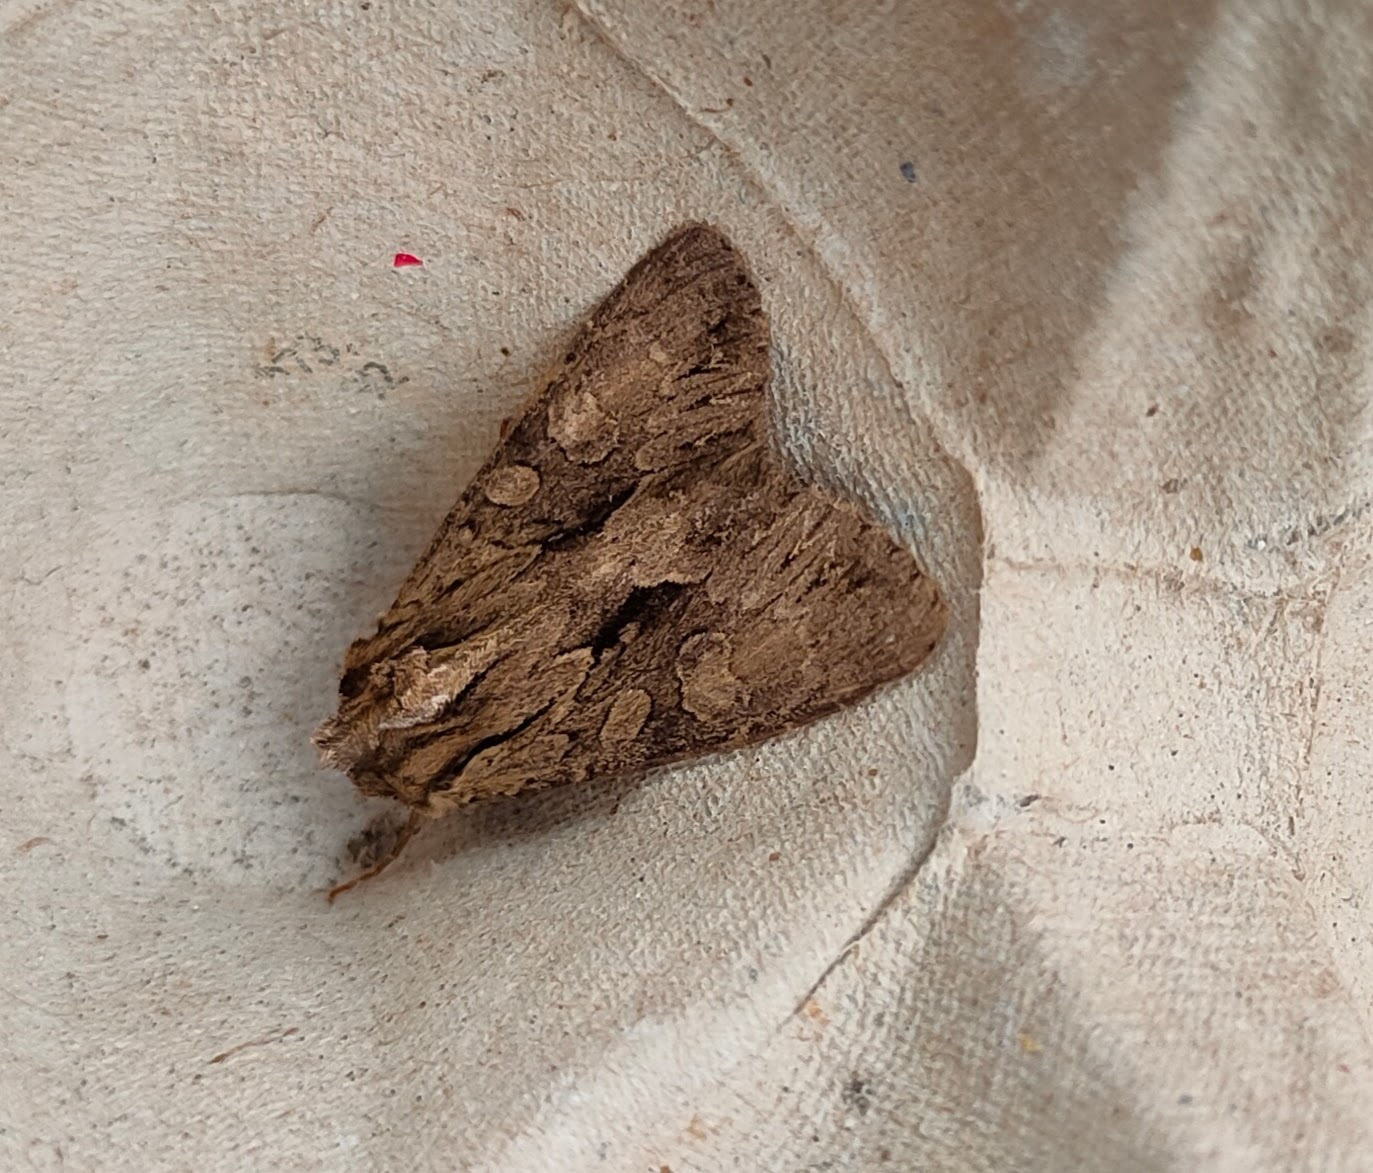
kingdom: Animalia
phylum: Arthropoda
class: Insecta
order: Lepidoptera
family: Noctuidae
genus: Apamea
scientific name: Apamea monoglypha
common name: Dark arches
